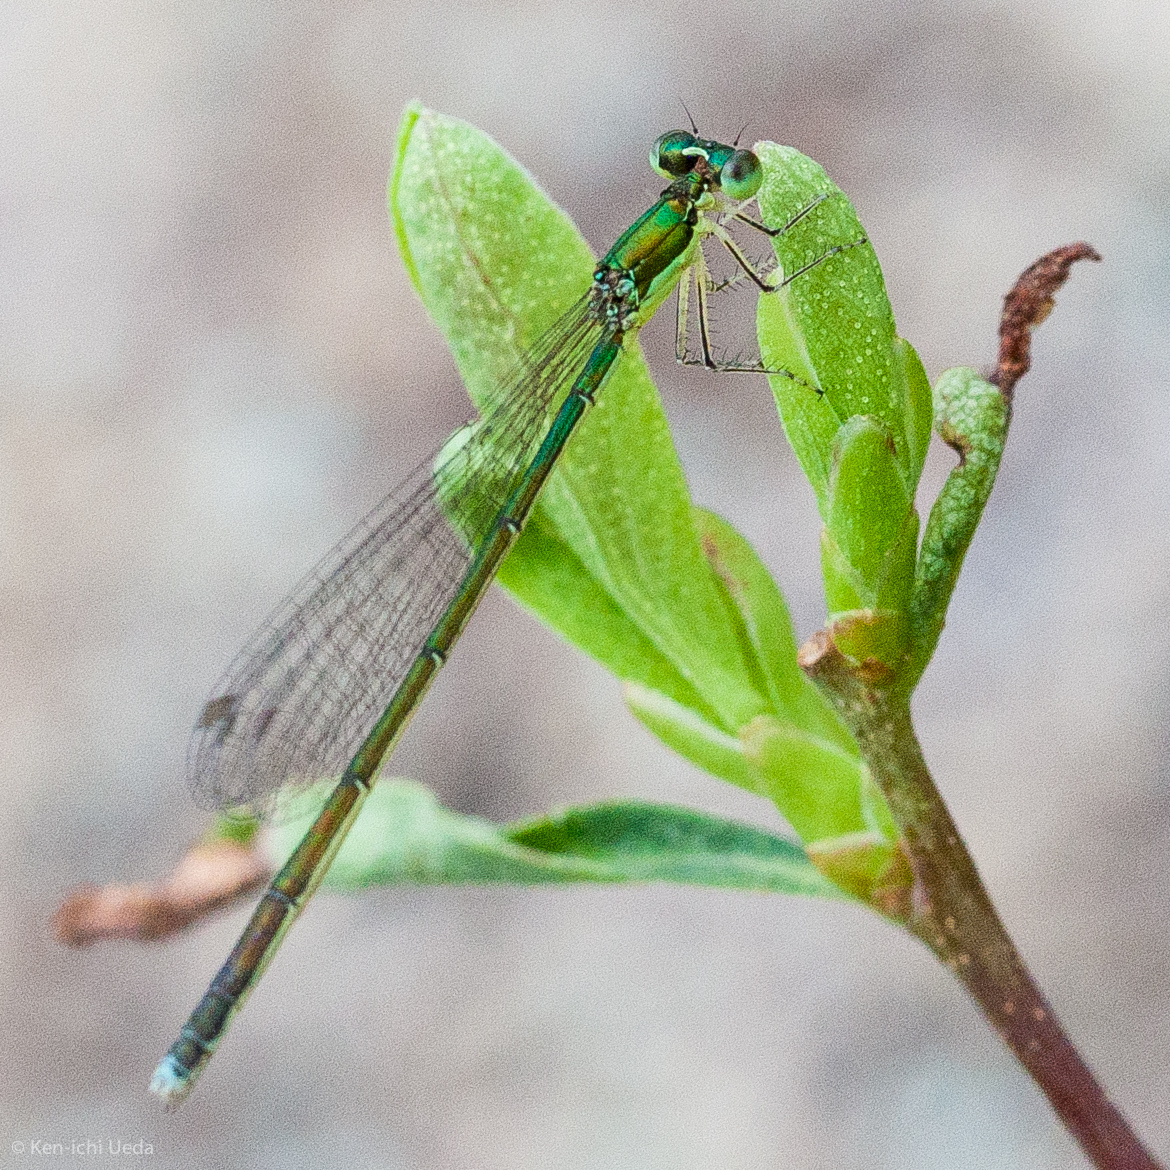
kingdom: Animalia
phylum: Arthropoda
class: Insecta
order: Odonata
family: Coenagrionidae
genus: Nehalennia
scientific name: Nehalennia irene
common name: Sedge sprite
